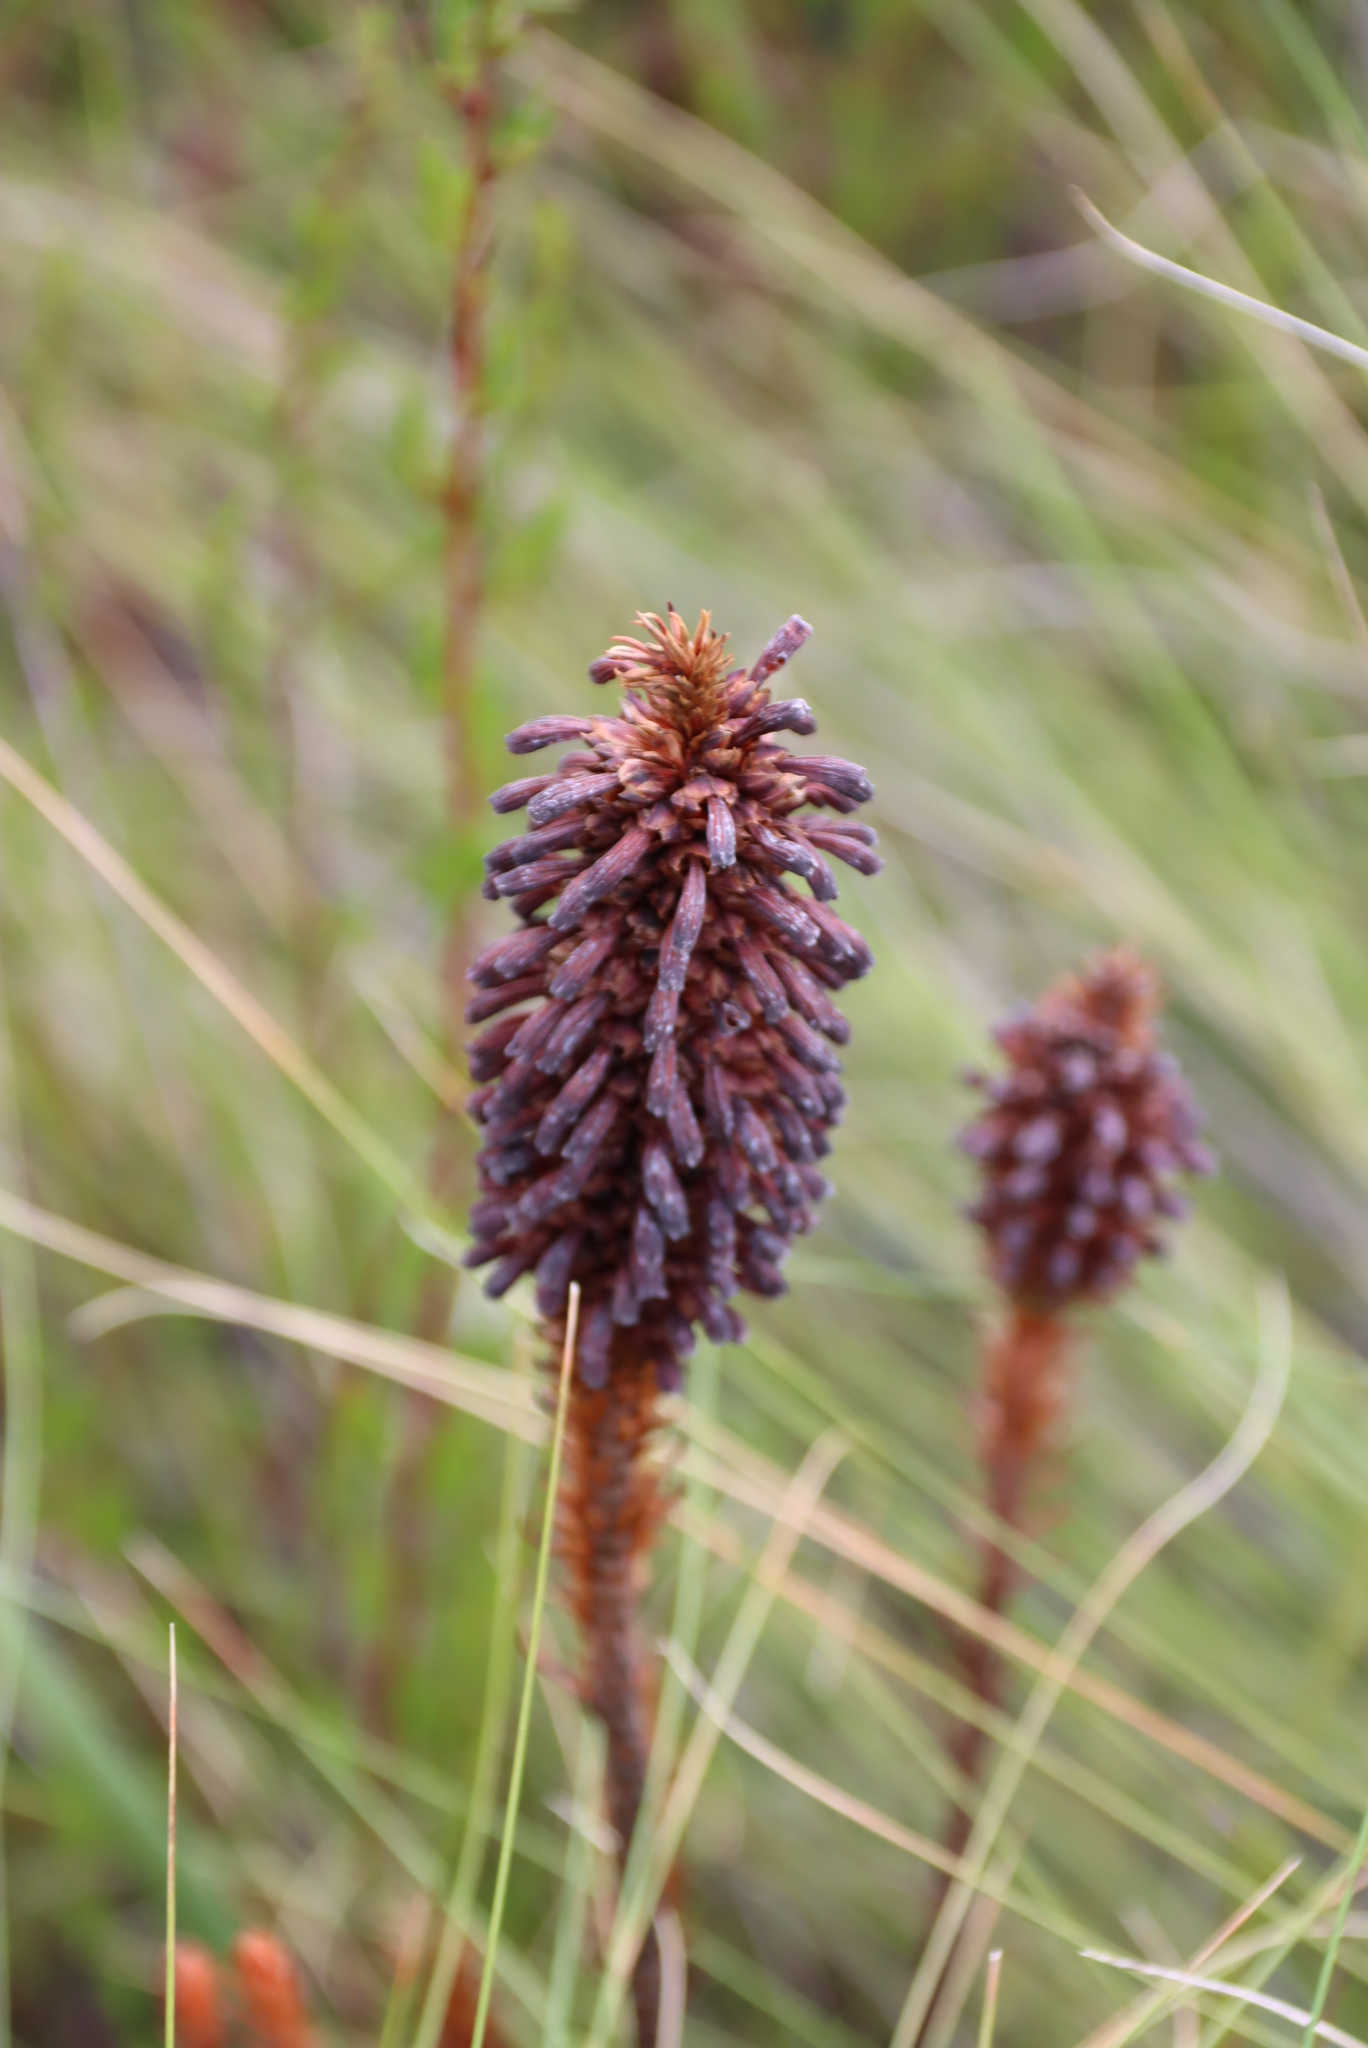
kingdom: Plantae
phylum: Tracheophyta
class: Magnoliopsida
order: Ericales
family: Ericaceae
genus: Erica
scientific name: Erica sessiliflora
